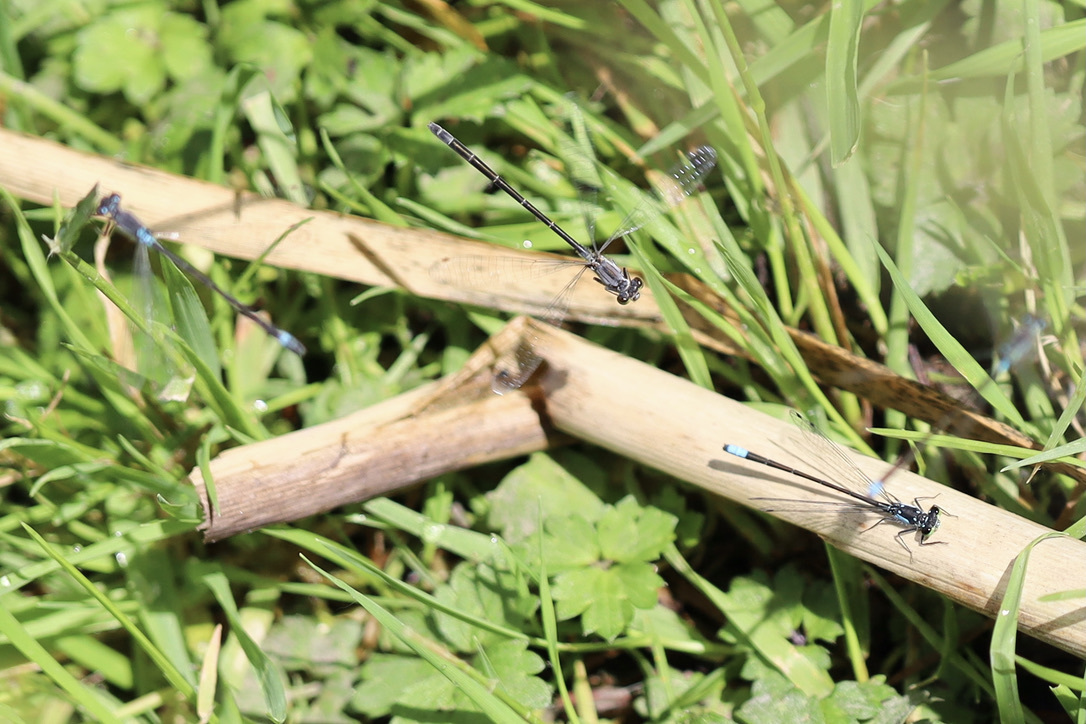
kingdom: Animalia
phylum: Arthropoda
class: Insecta
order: Odonata
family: Coenagrionidae
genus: Ischnura
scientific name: Ischnura cervula
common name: Pacific forktail
